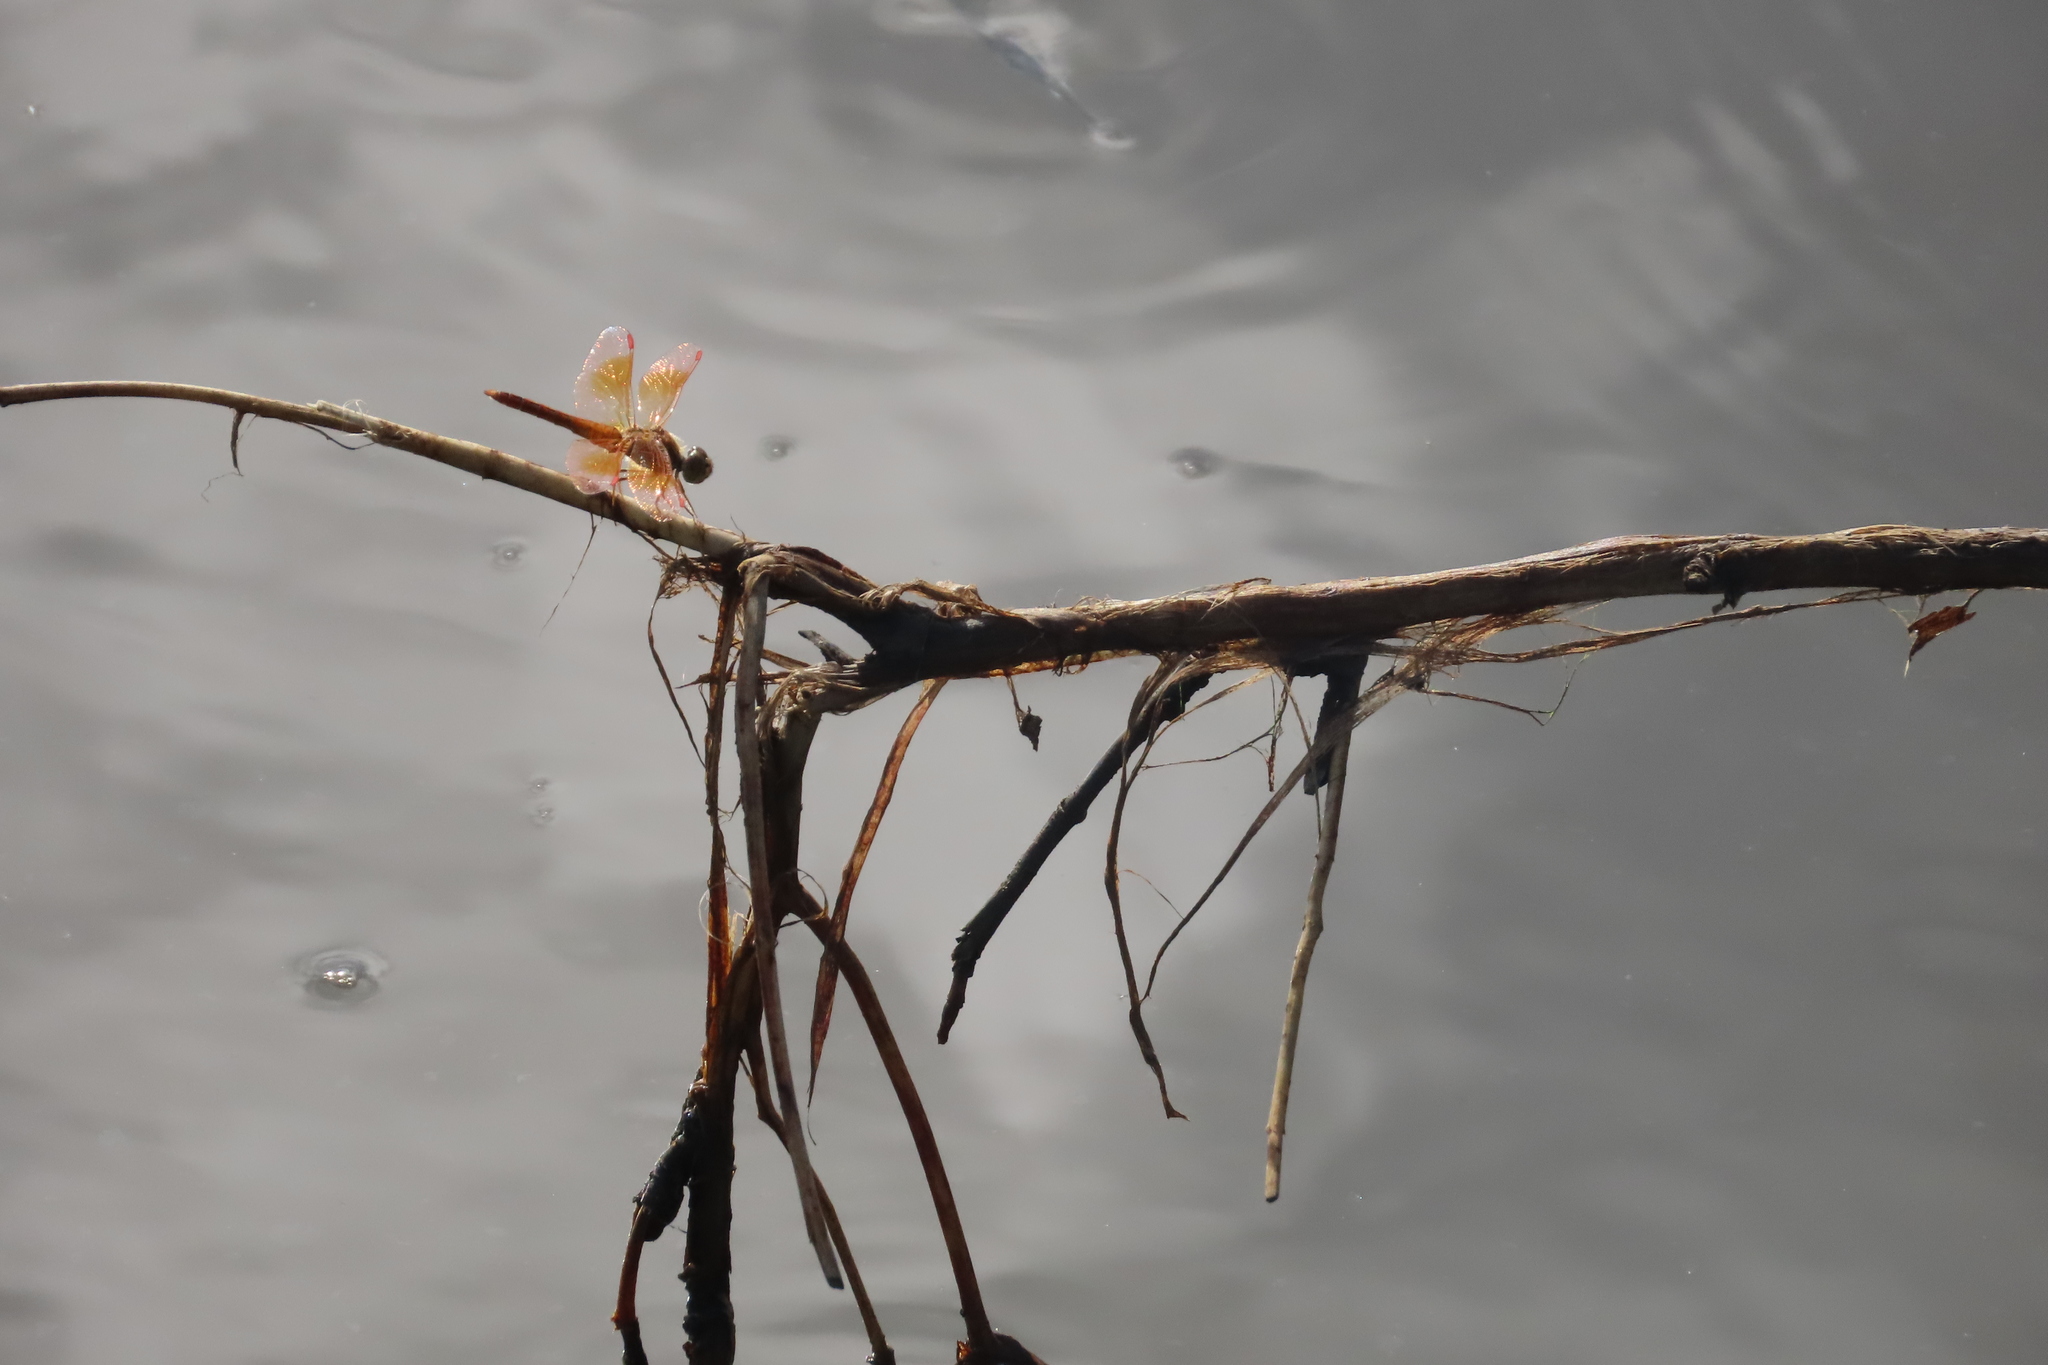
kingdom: Animalia
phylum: Arthropoda
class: Insecta
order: Odonata
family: Libellulidae
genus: Brachythemis
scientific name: Brachythemis contaminata
